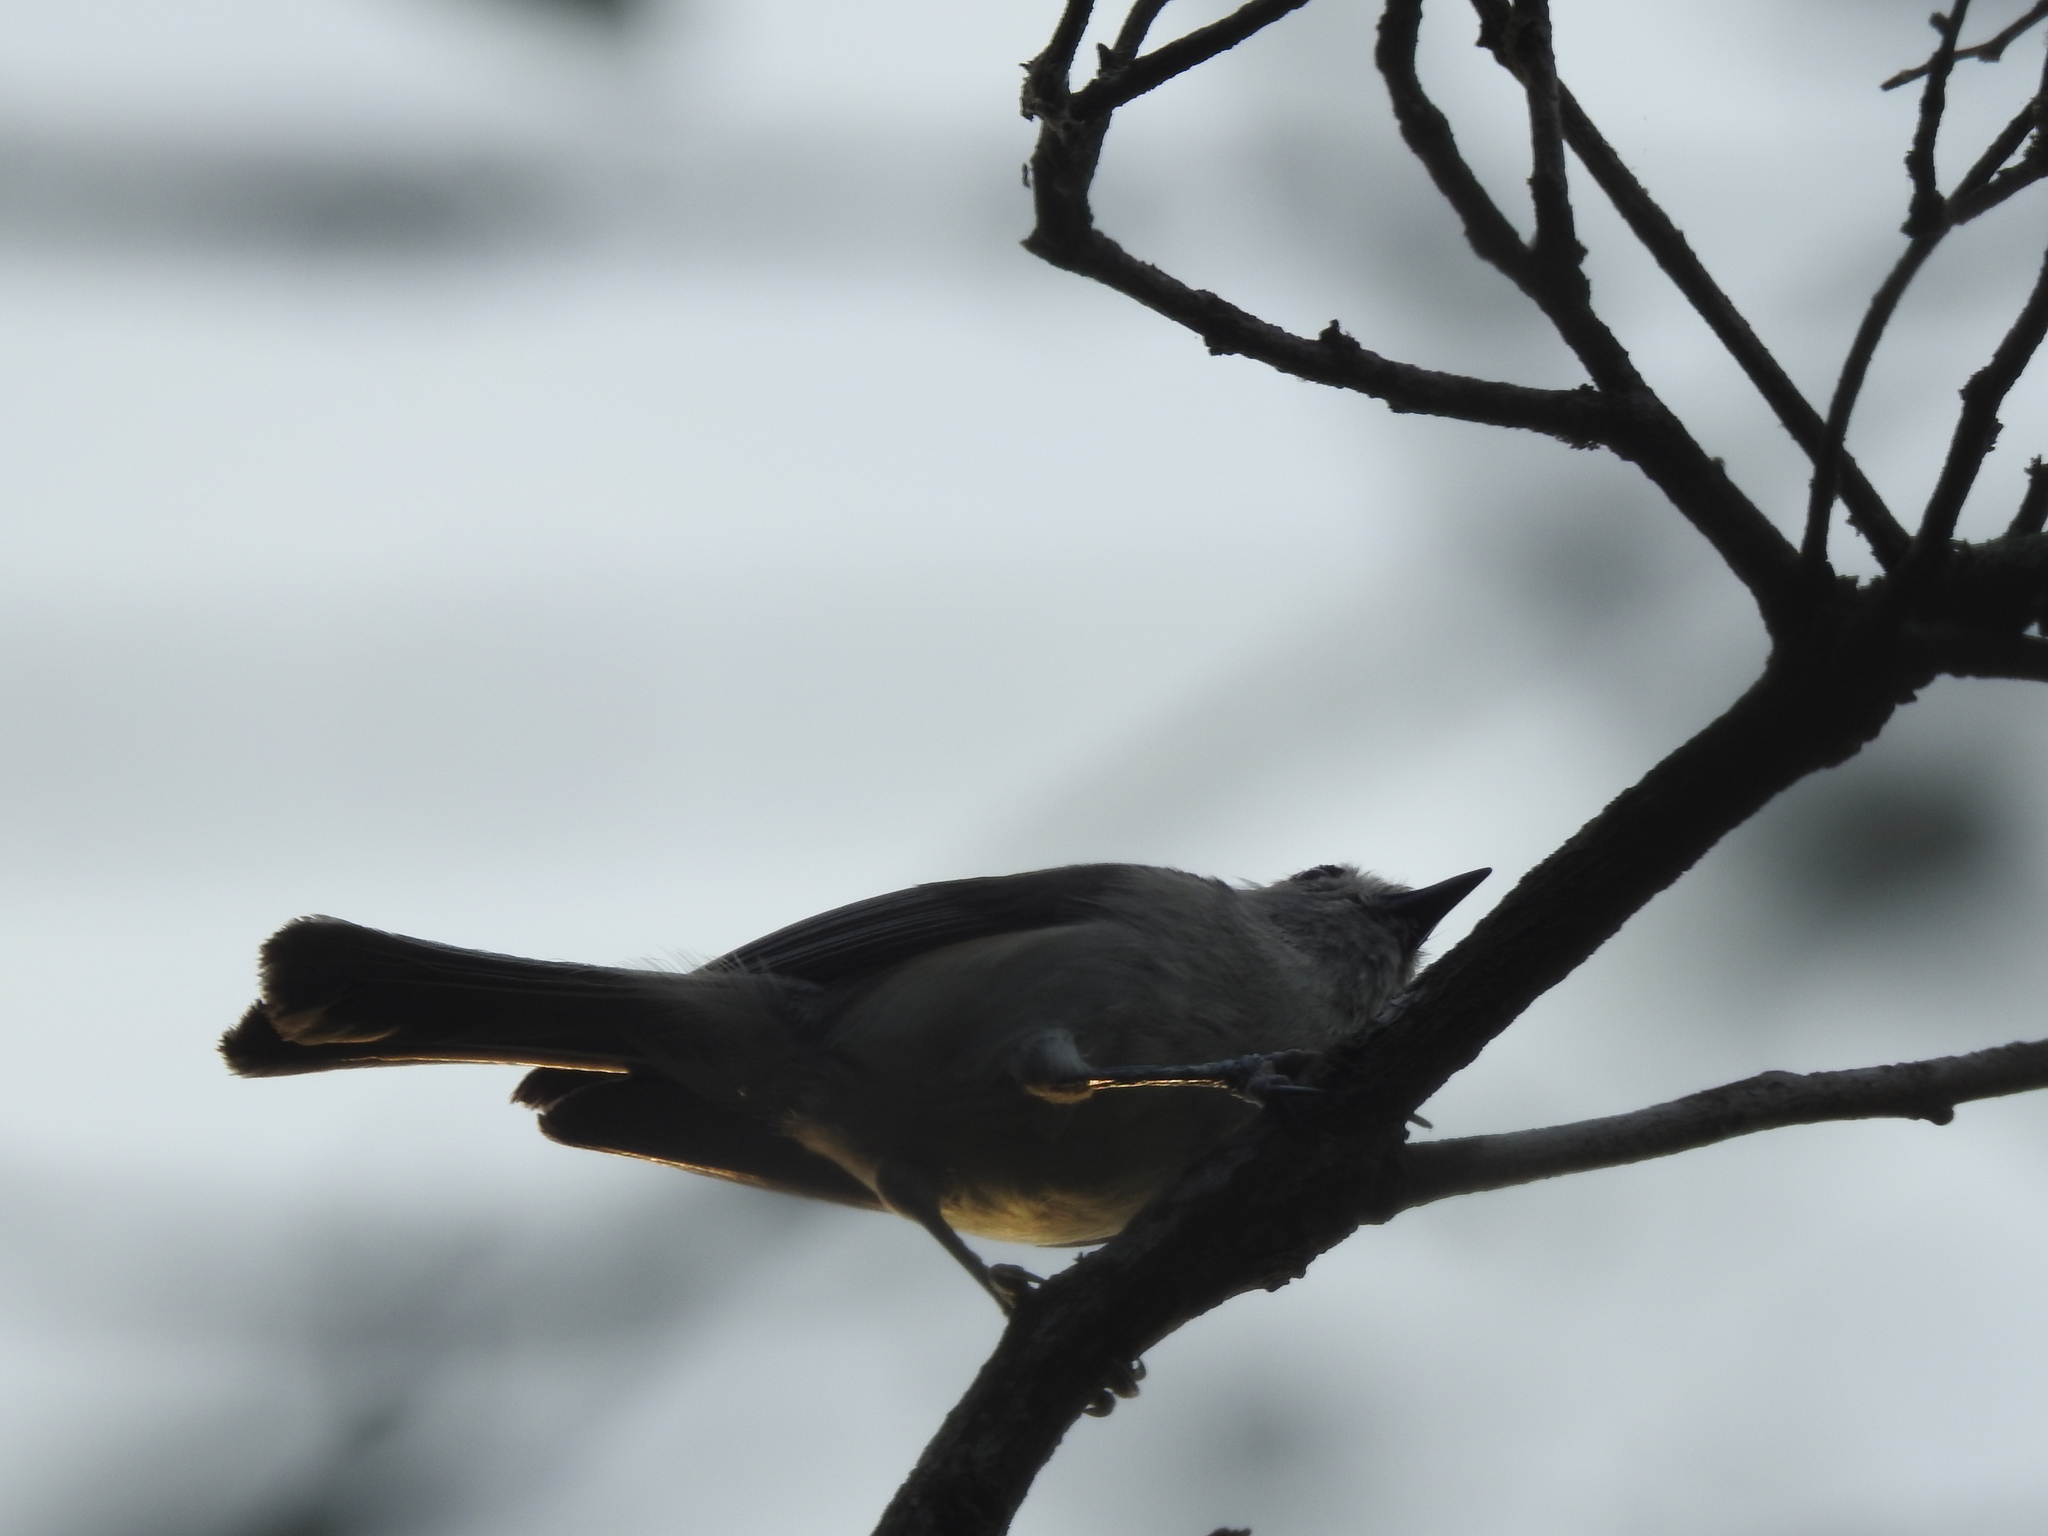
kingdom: Animalia
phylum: Chordata
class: Aves
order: Passeriformes
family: Paridae
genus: Baeolophus
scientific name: Baeolophus atricristatus
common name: Black-crested titmouse
